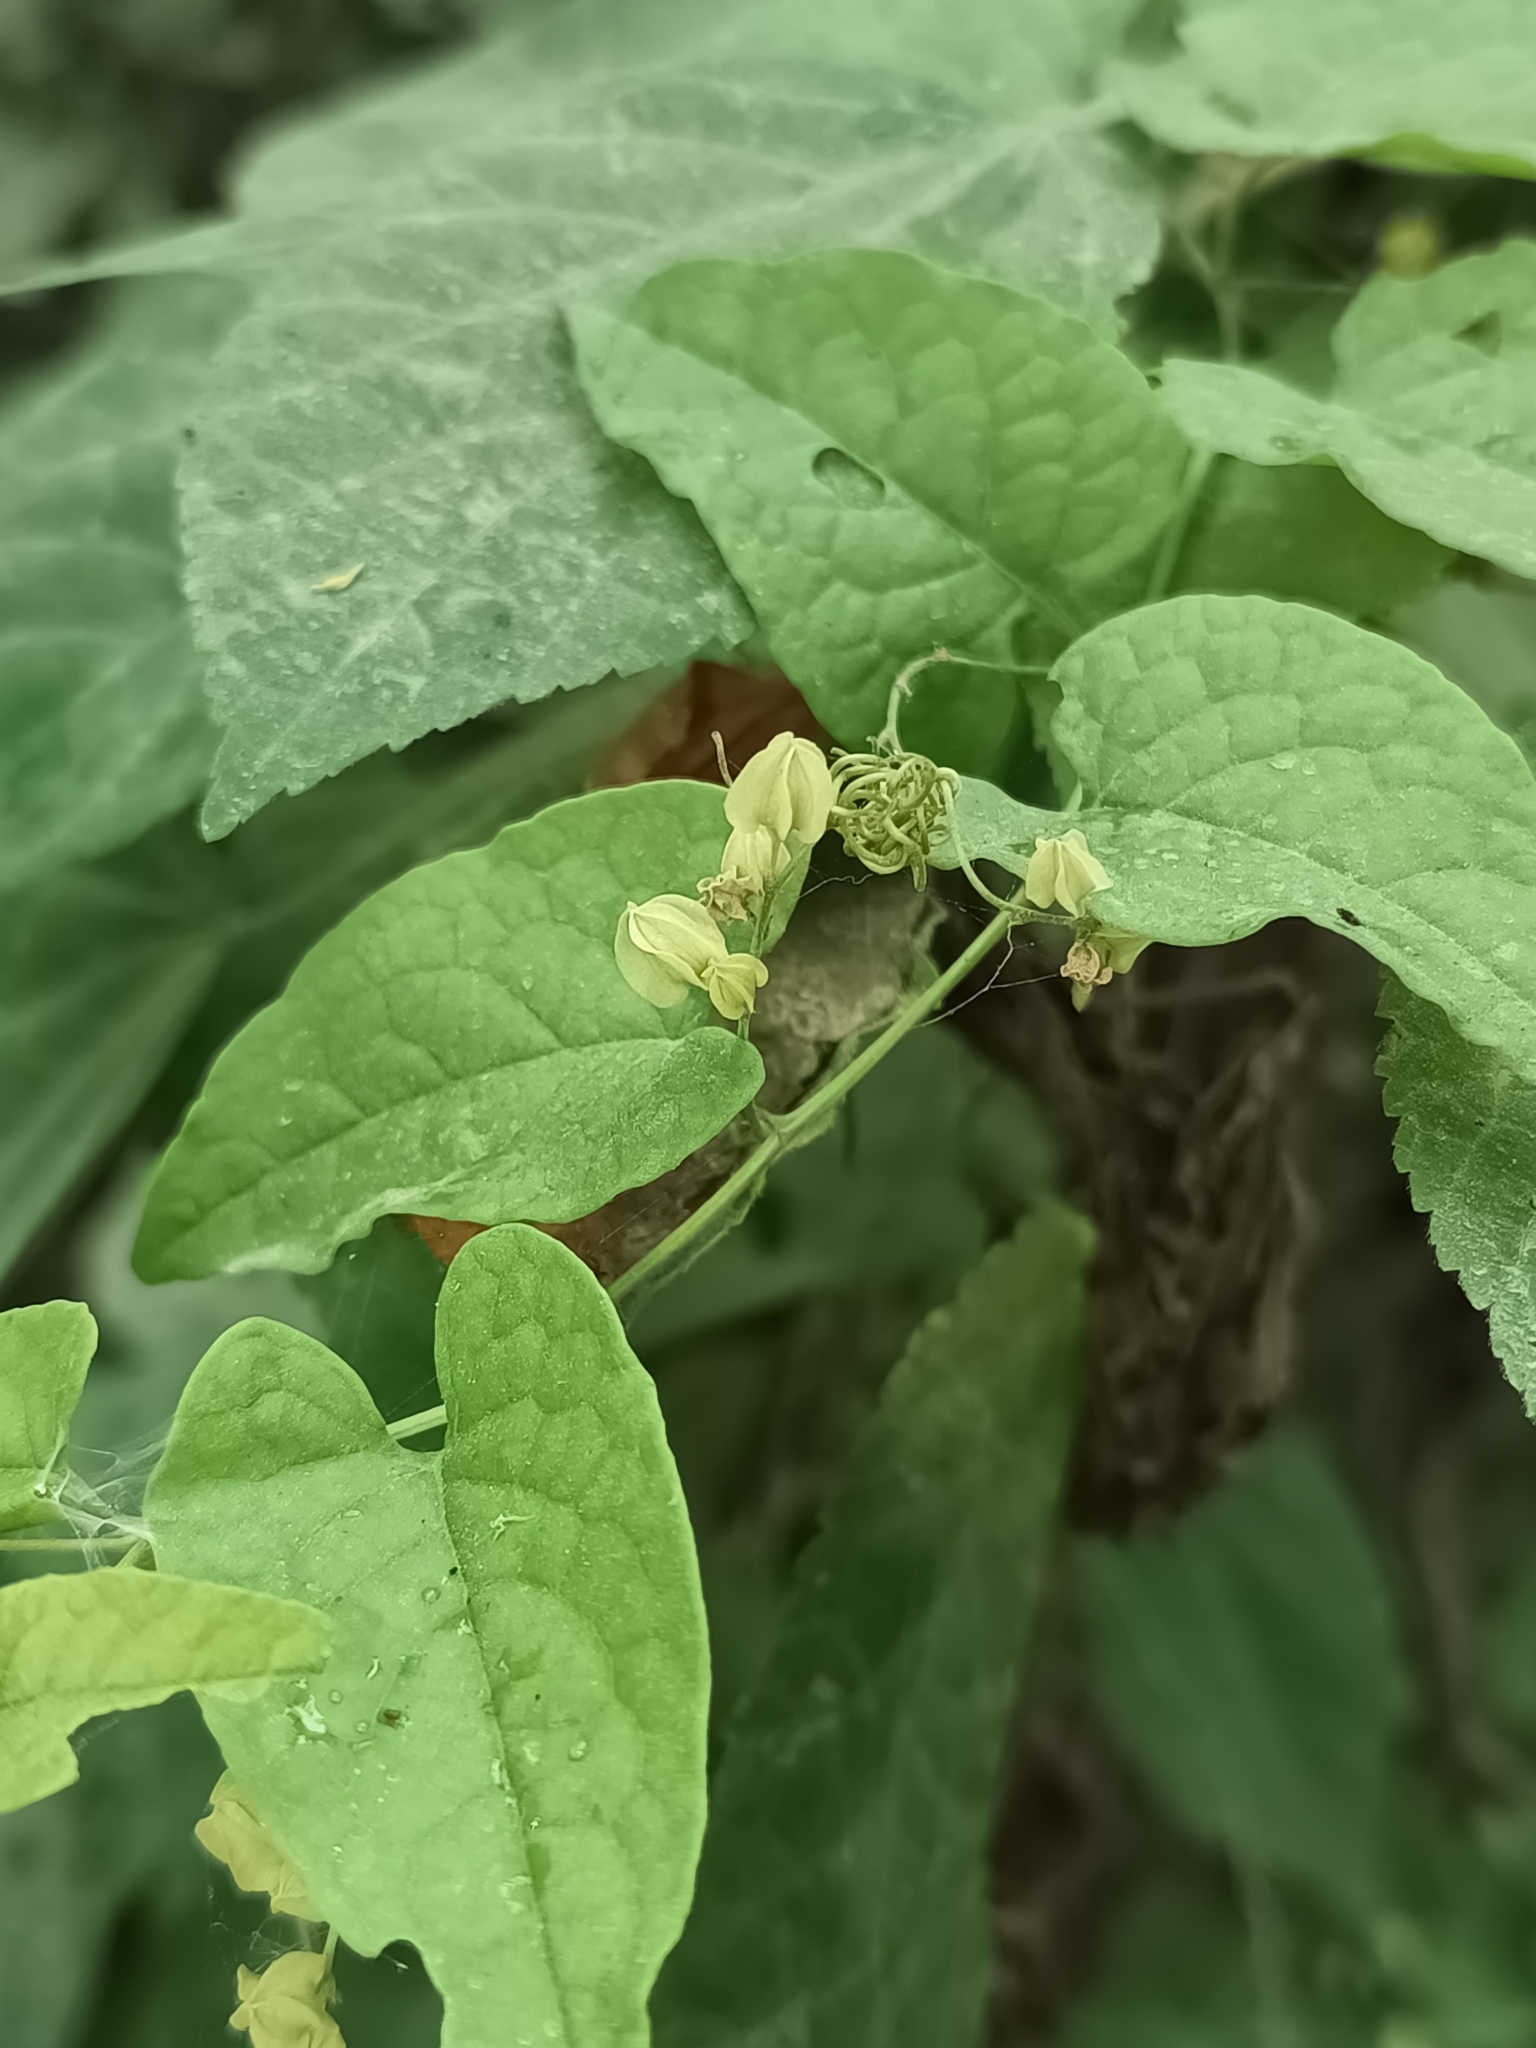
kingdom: Plantae
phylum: Tracheophyta
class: Magnoliopsida
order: Caryophyllales
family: Polygonaceae
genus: Antigonon
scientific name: Antigonon flavescens
